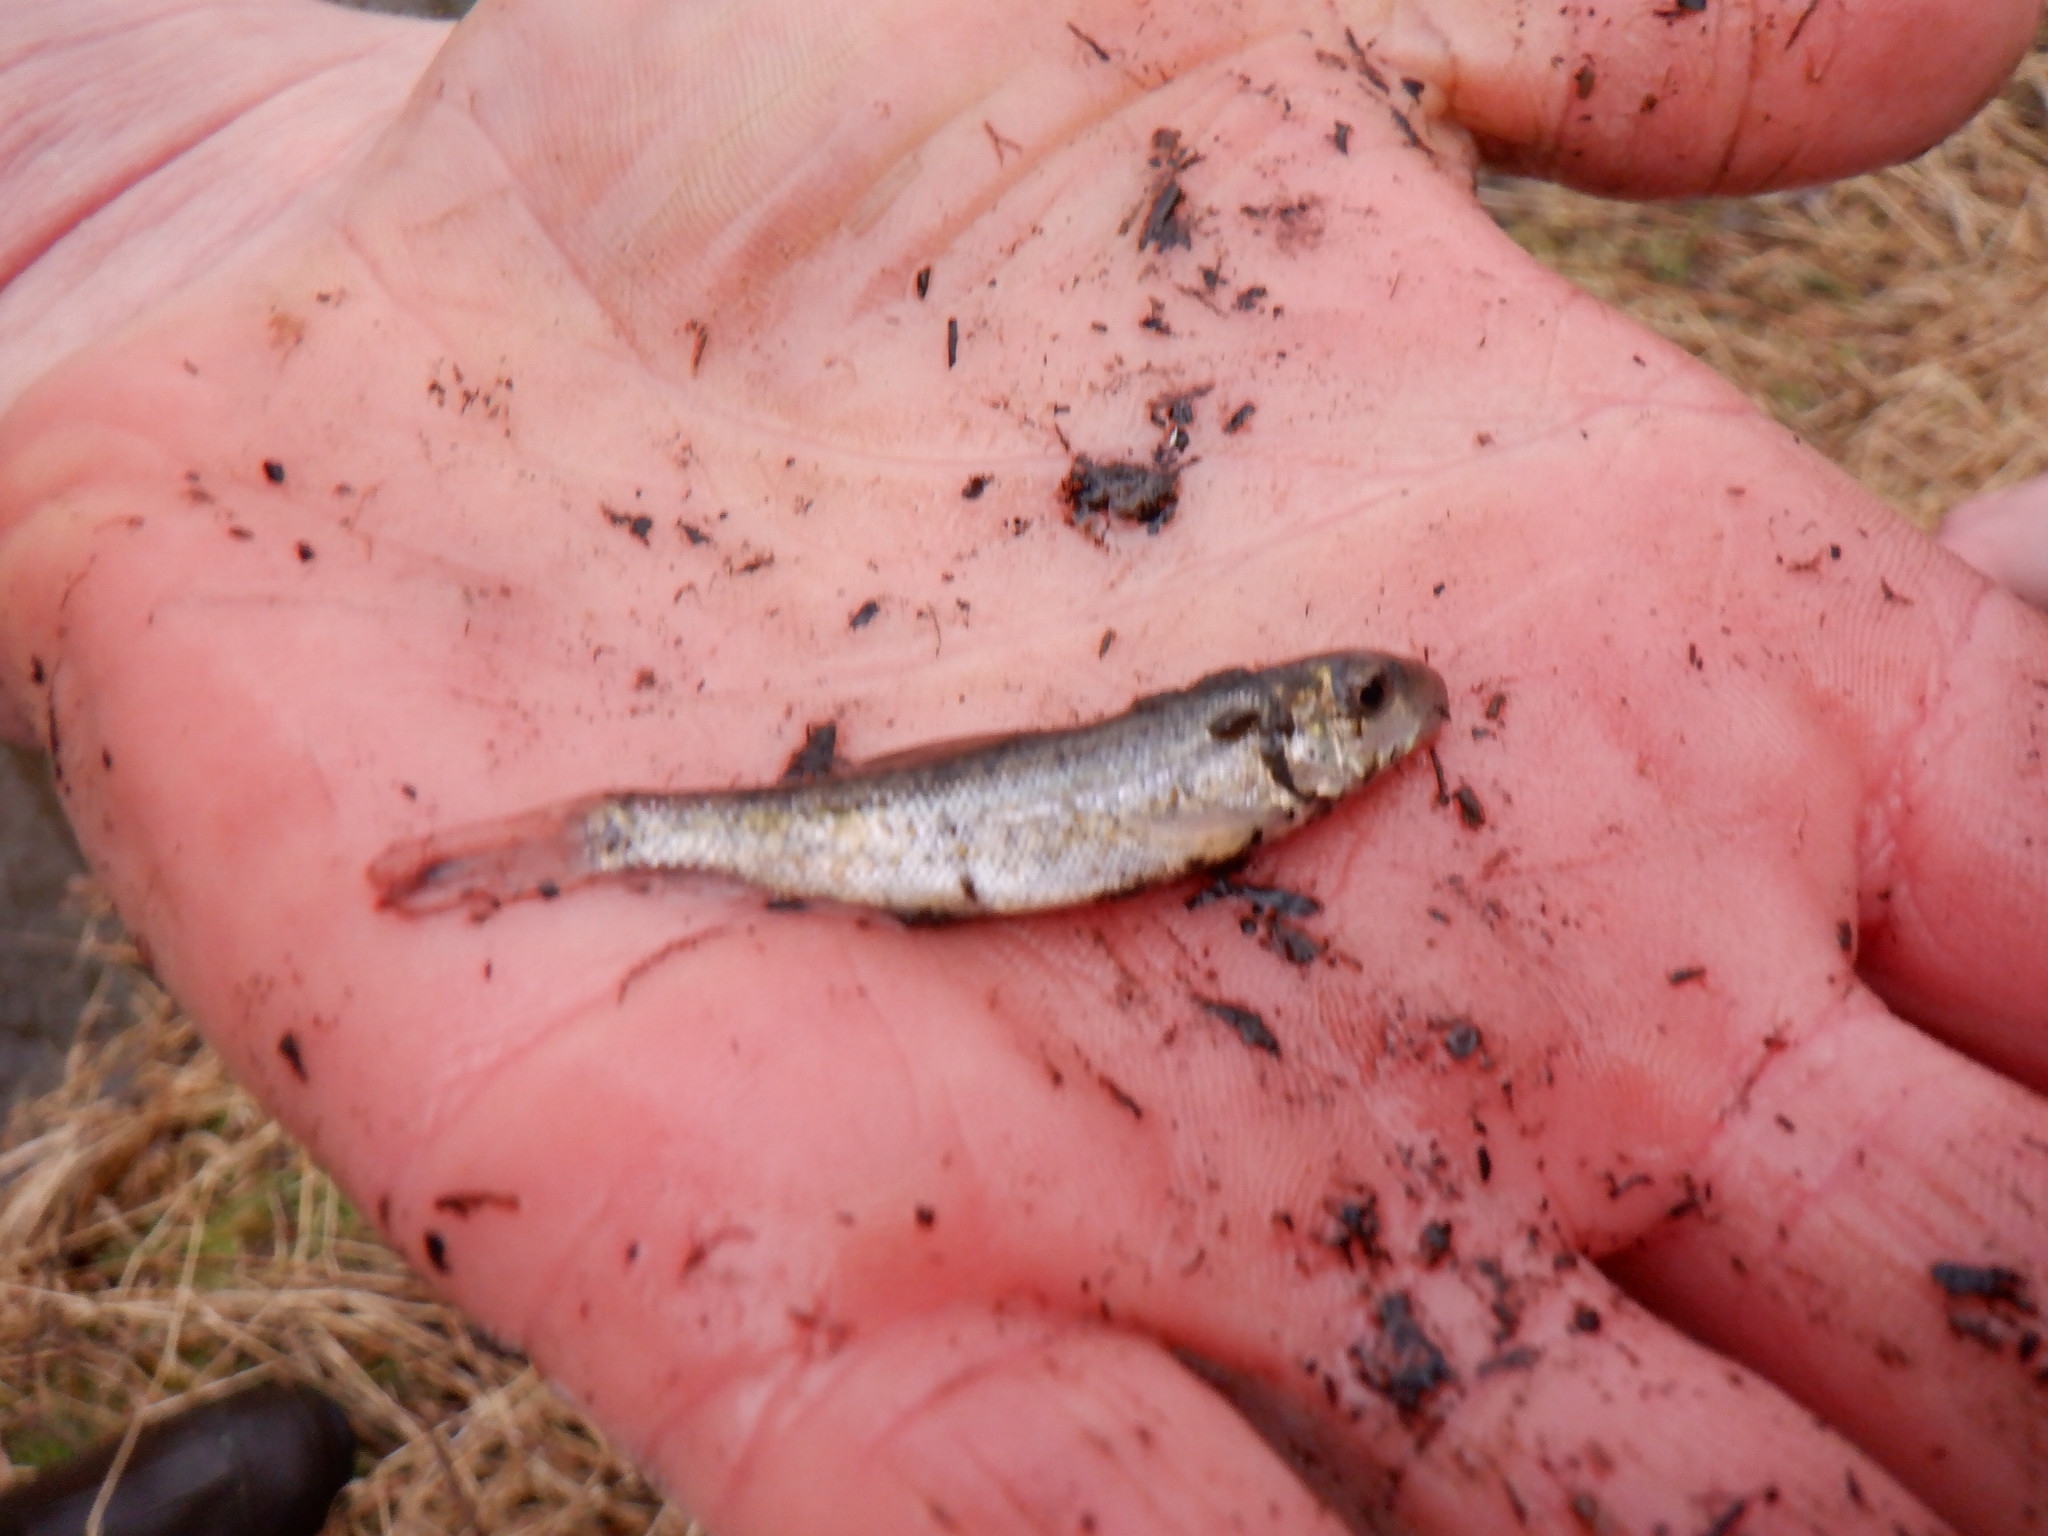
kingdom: Animalia
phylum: Chordata
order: Cypriniformes
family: Catostomidae
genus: Catostomus
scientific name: Catostomus commersonii
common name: White sucker
